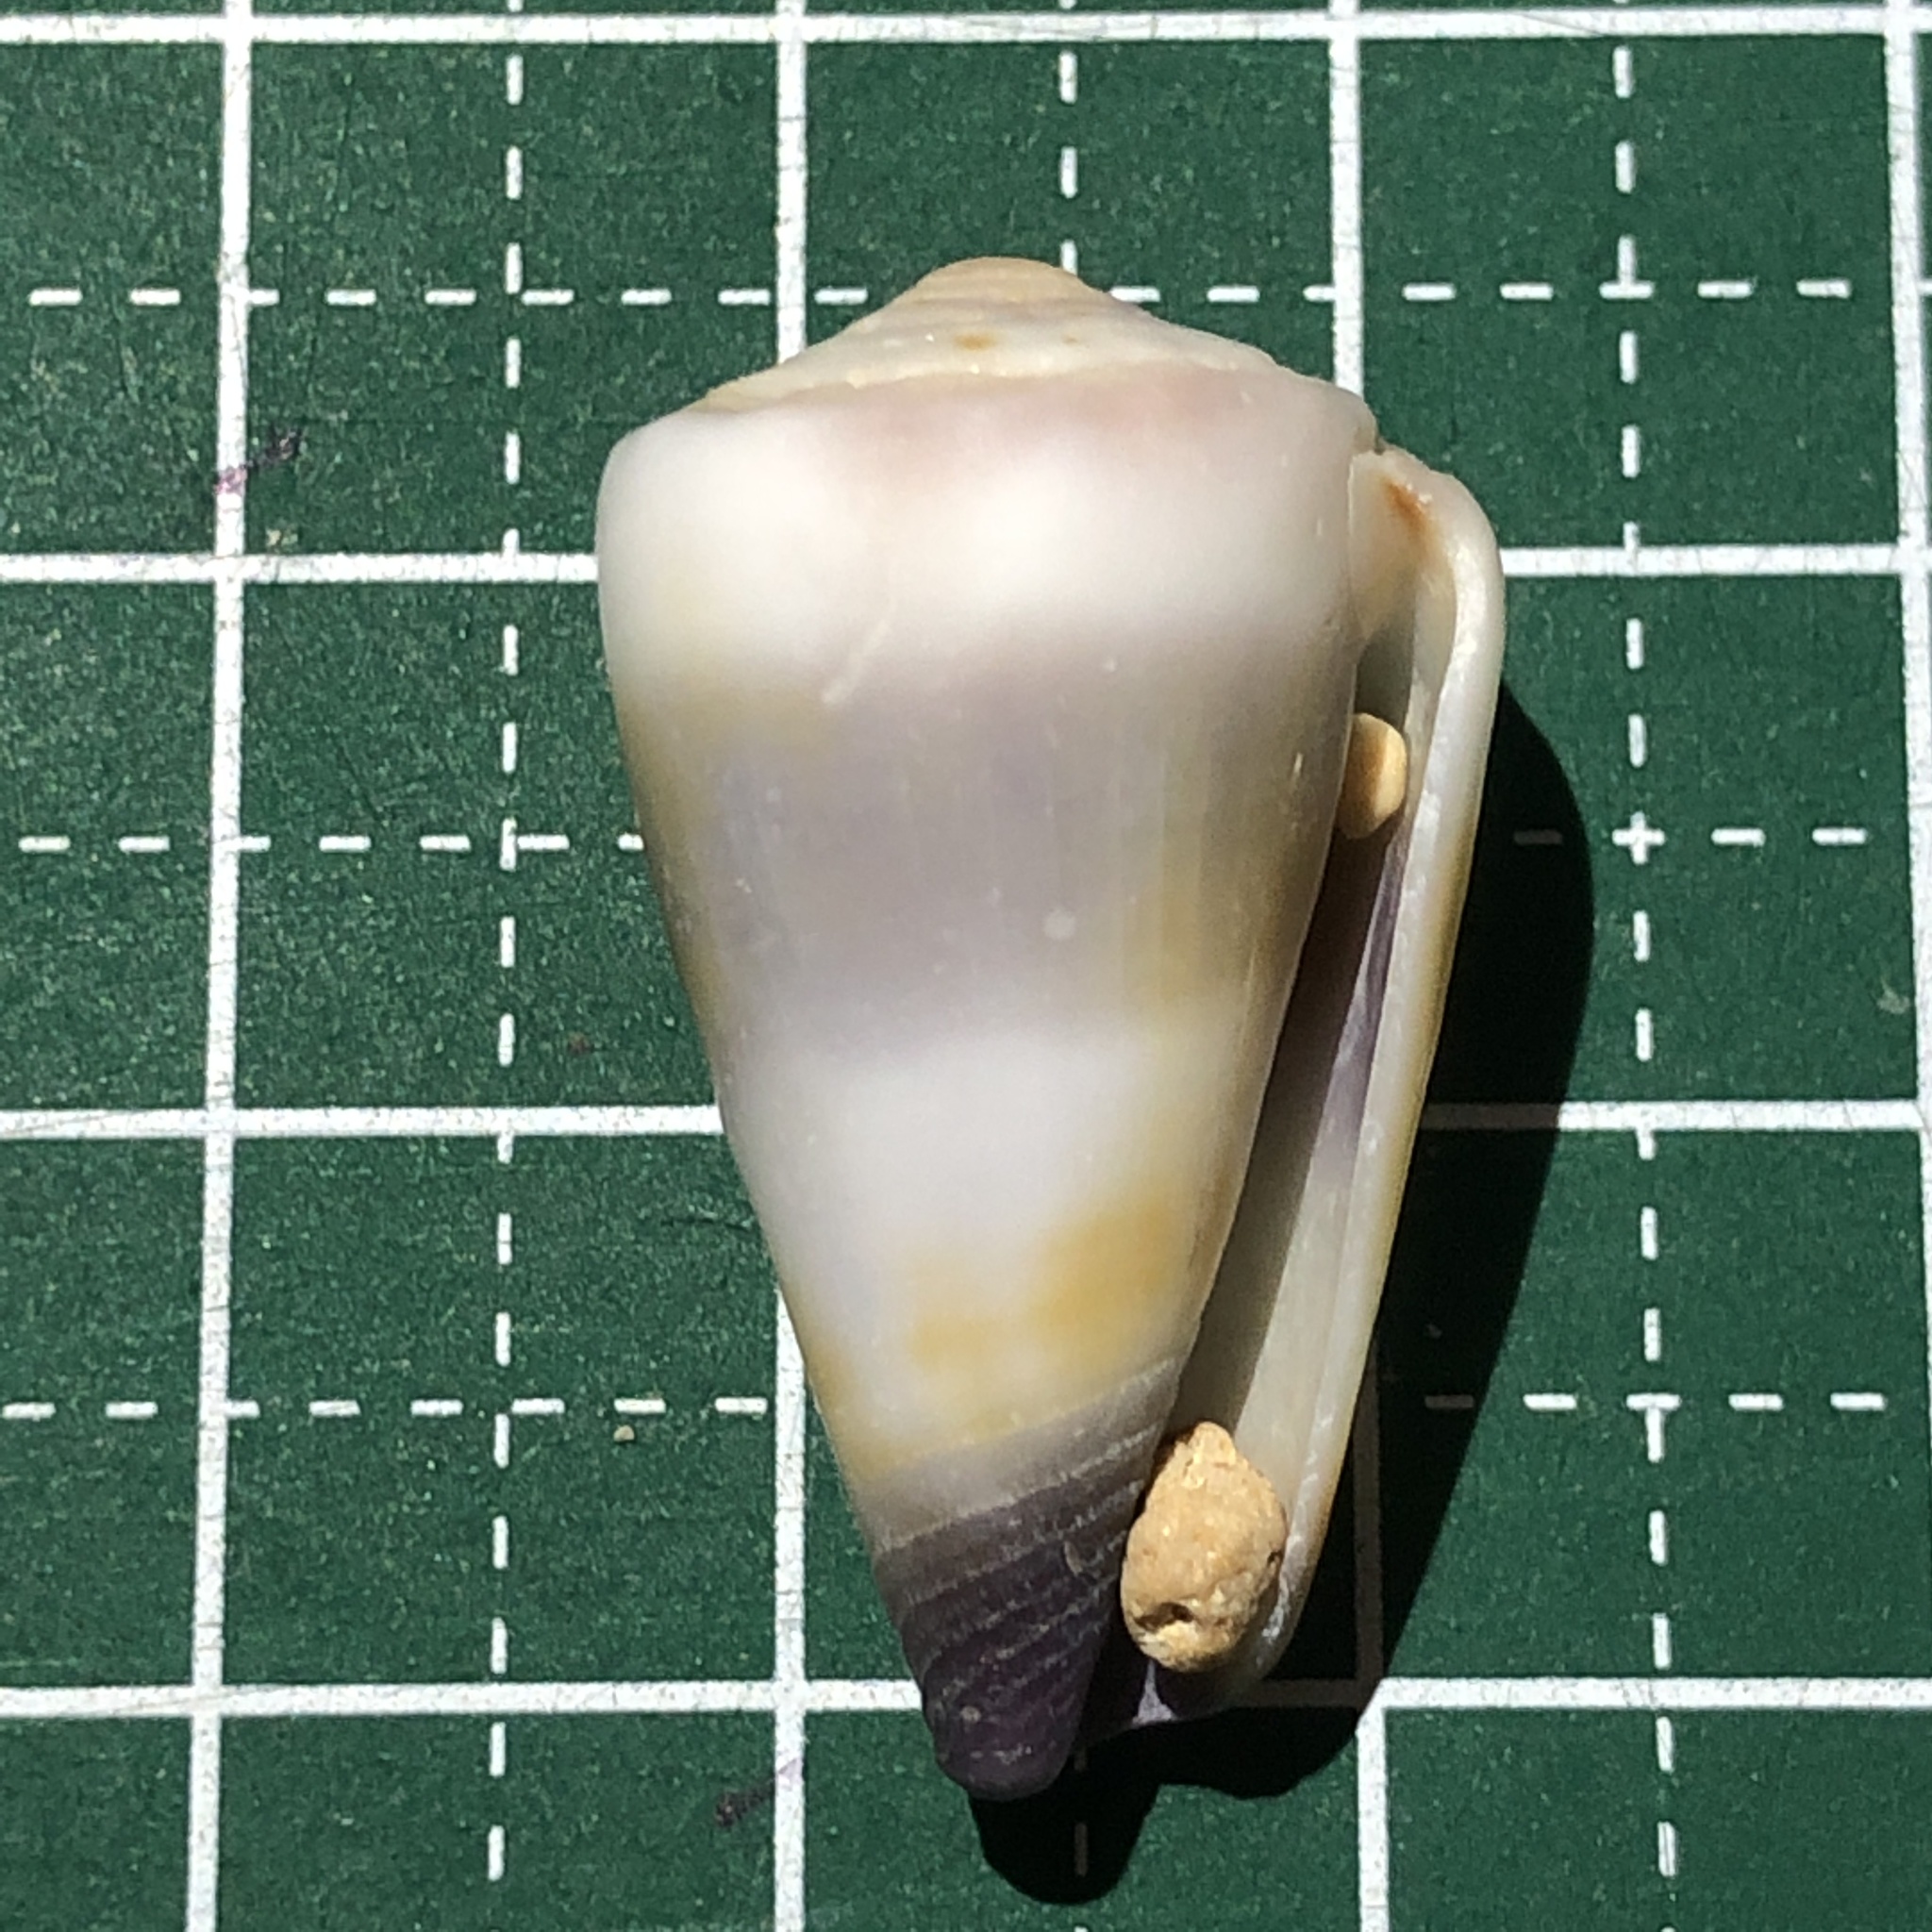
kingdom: Animalia
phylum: Mollusca
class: Gastropoda
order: Neogastropoda
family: Conidae
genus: Conus
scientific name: Conus muriculatus
